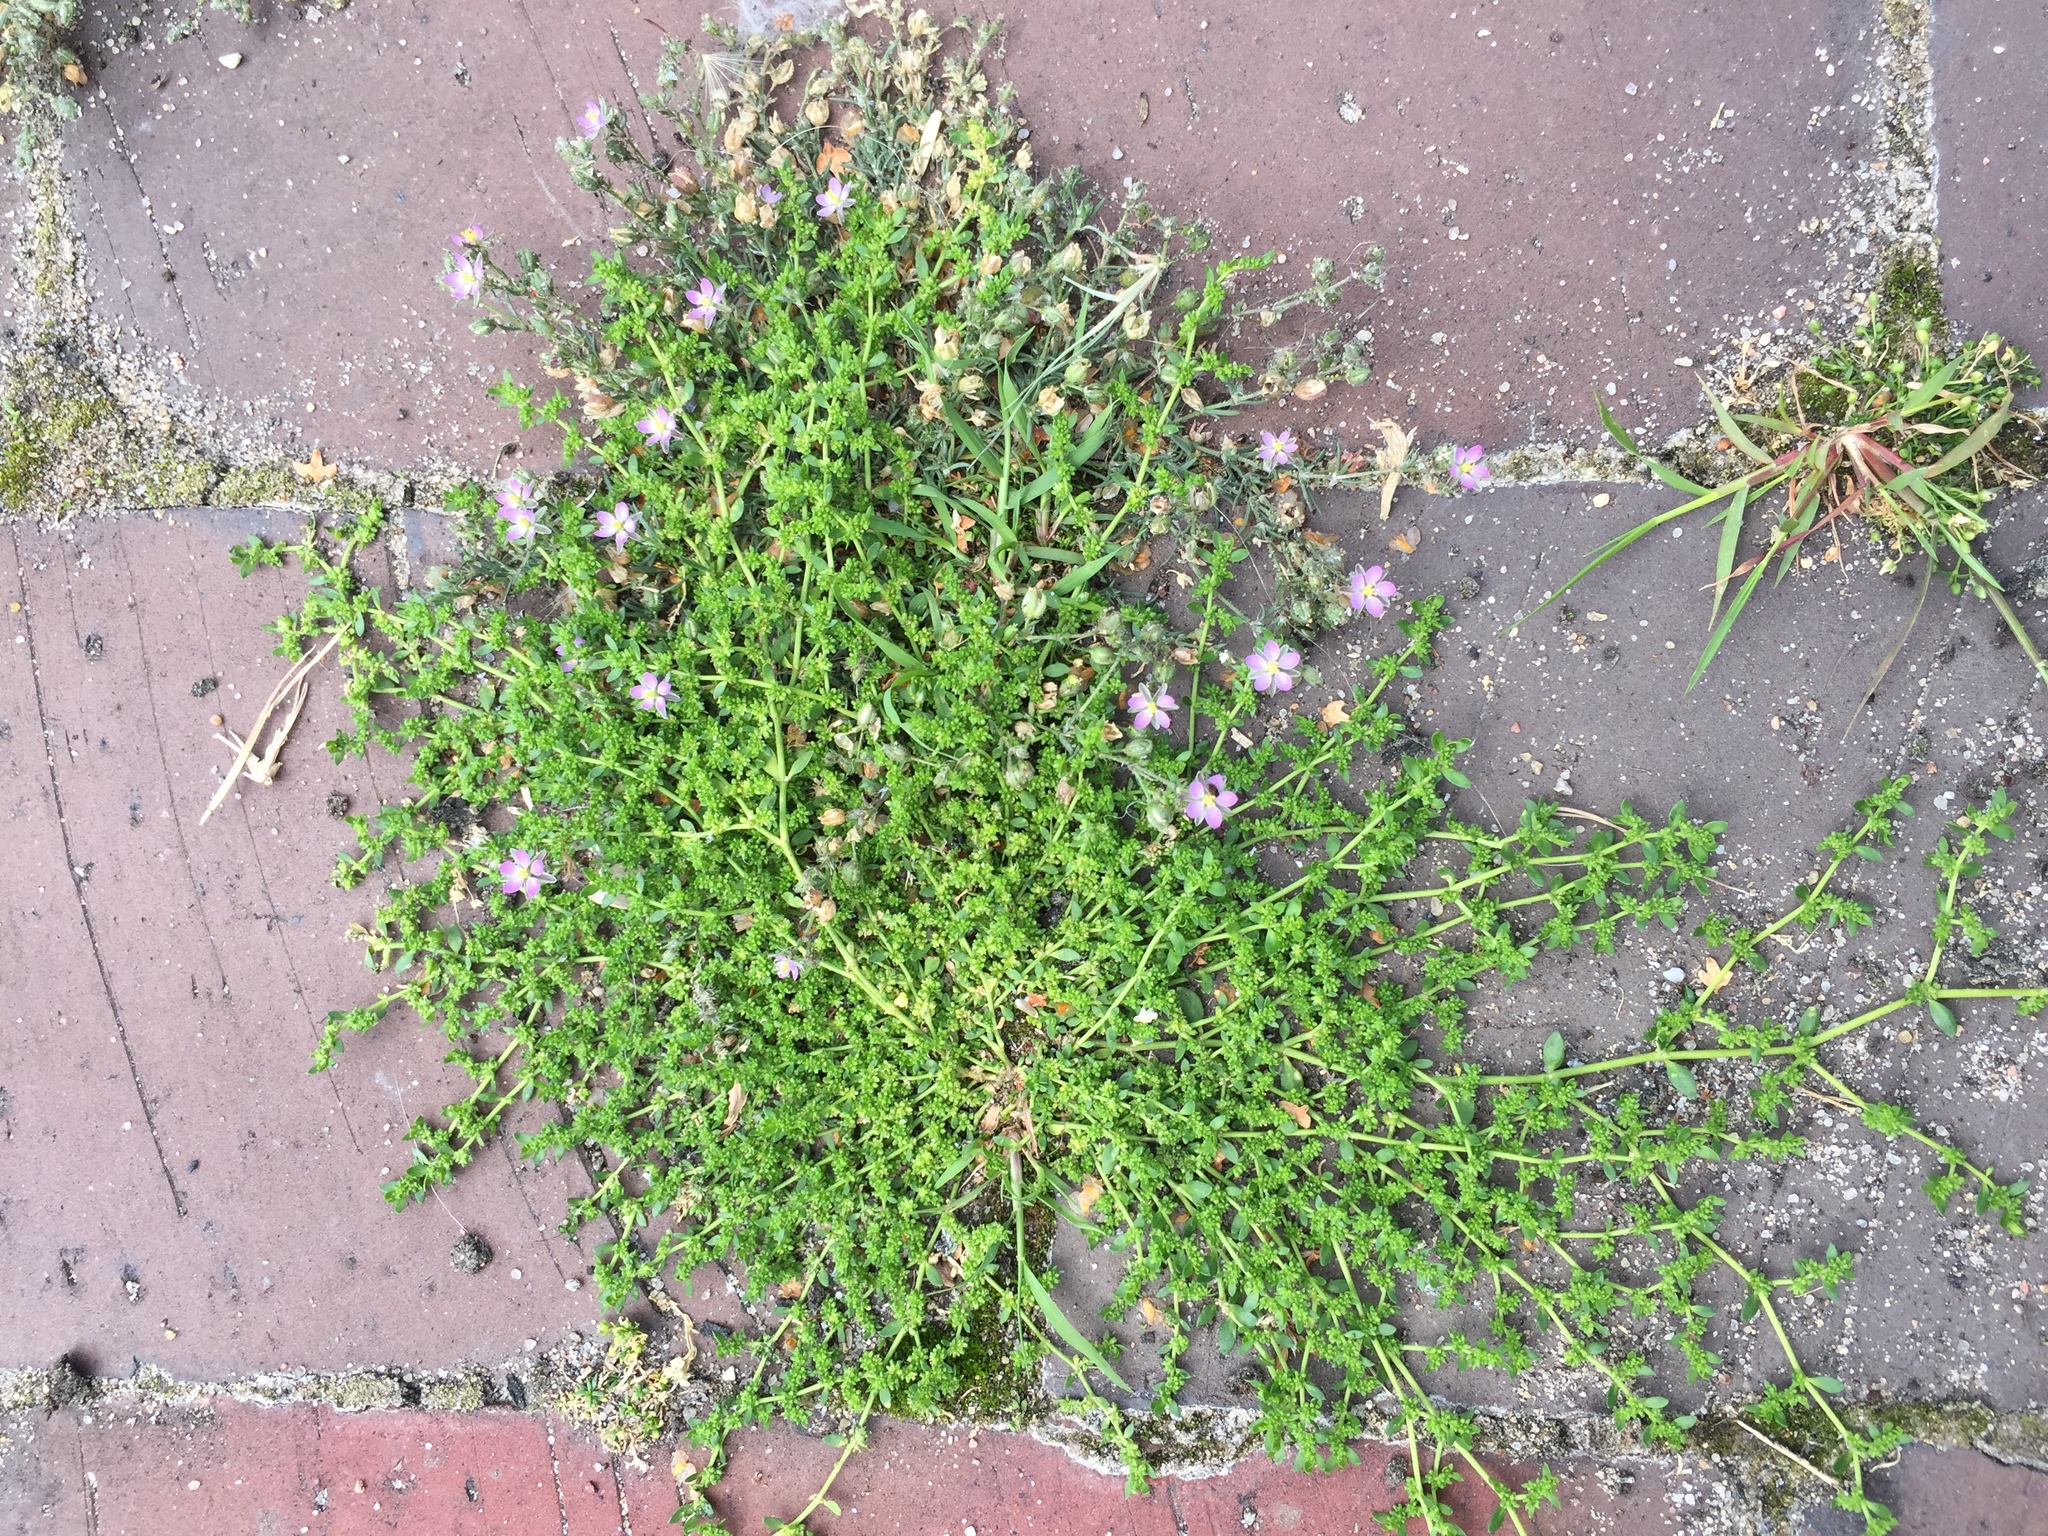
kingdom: Plantae
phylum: Tracheophyta
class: Magnoliopsida
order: Caryophyllales
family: Caryophyllaceae
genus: Spergularia
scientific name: Spergularia rubra
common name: Red sand-spurrey
